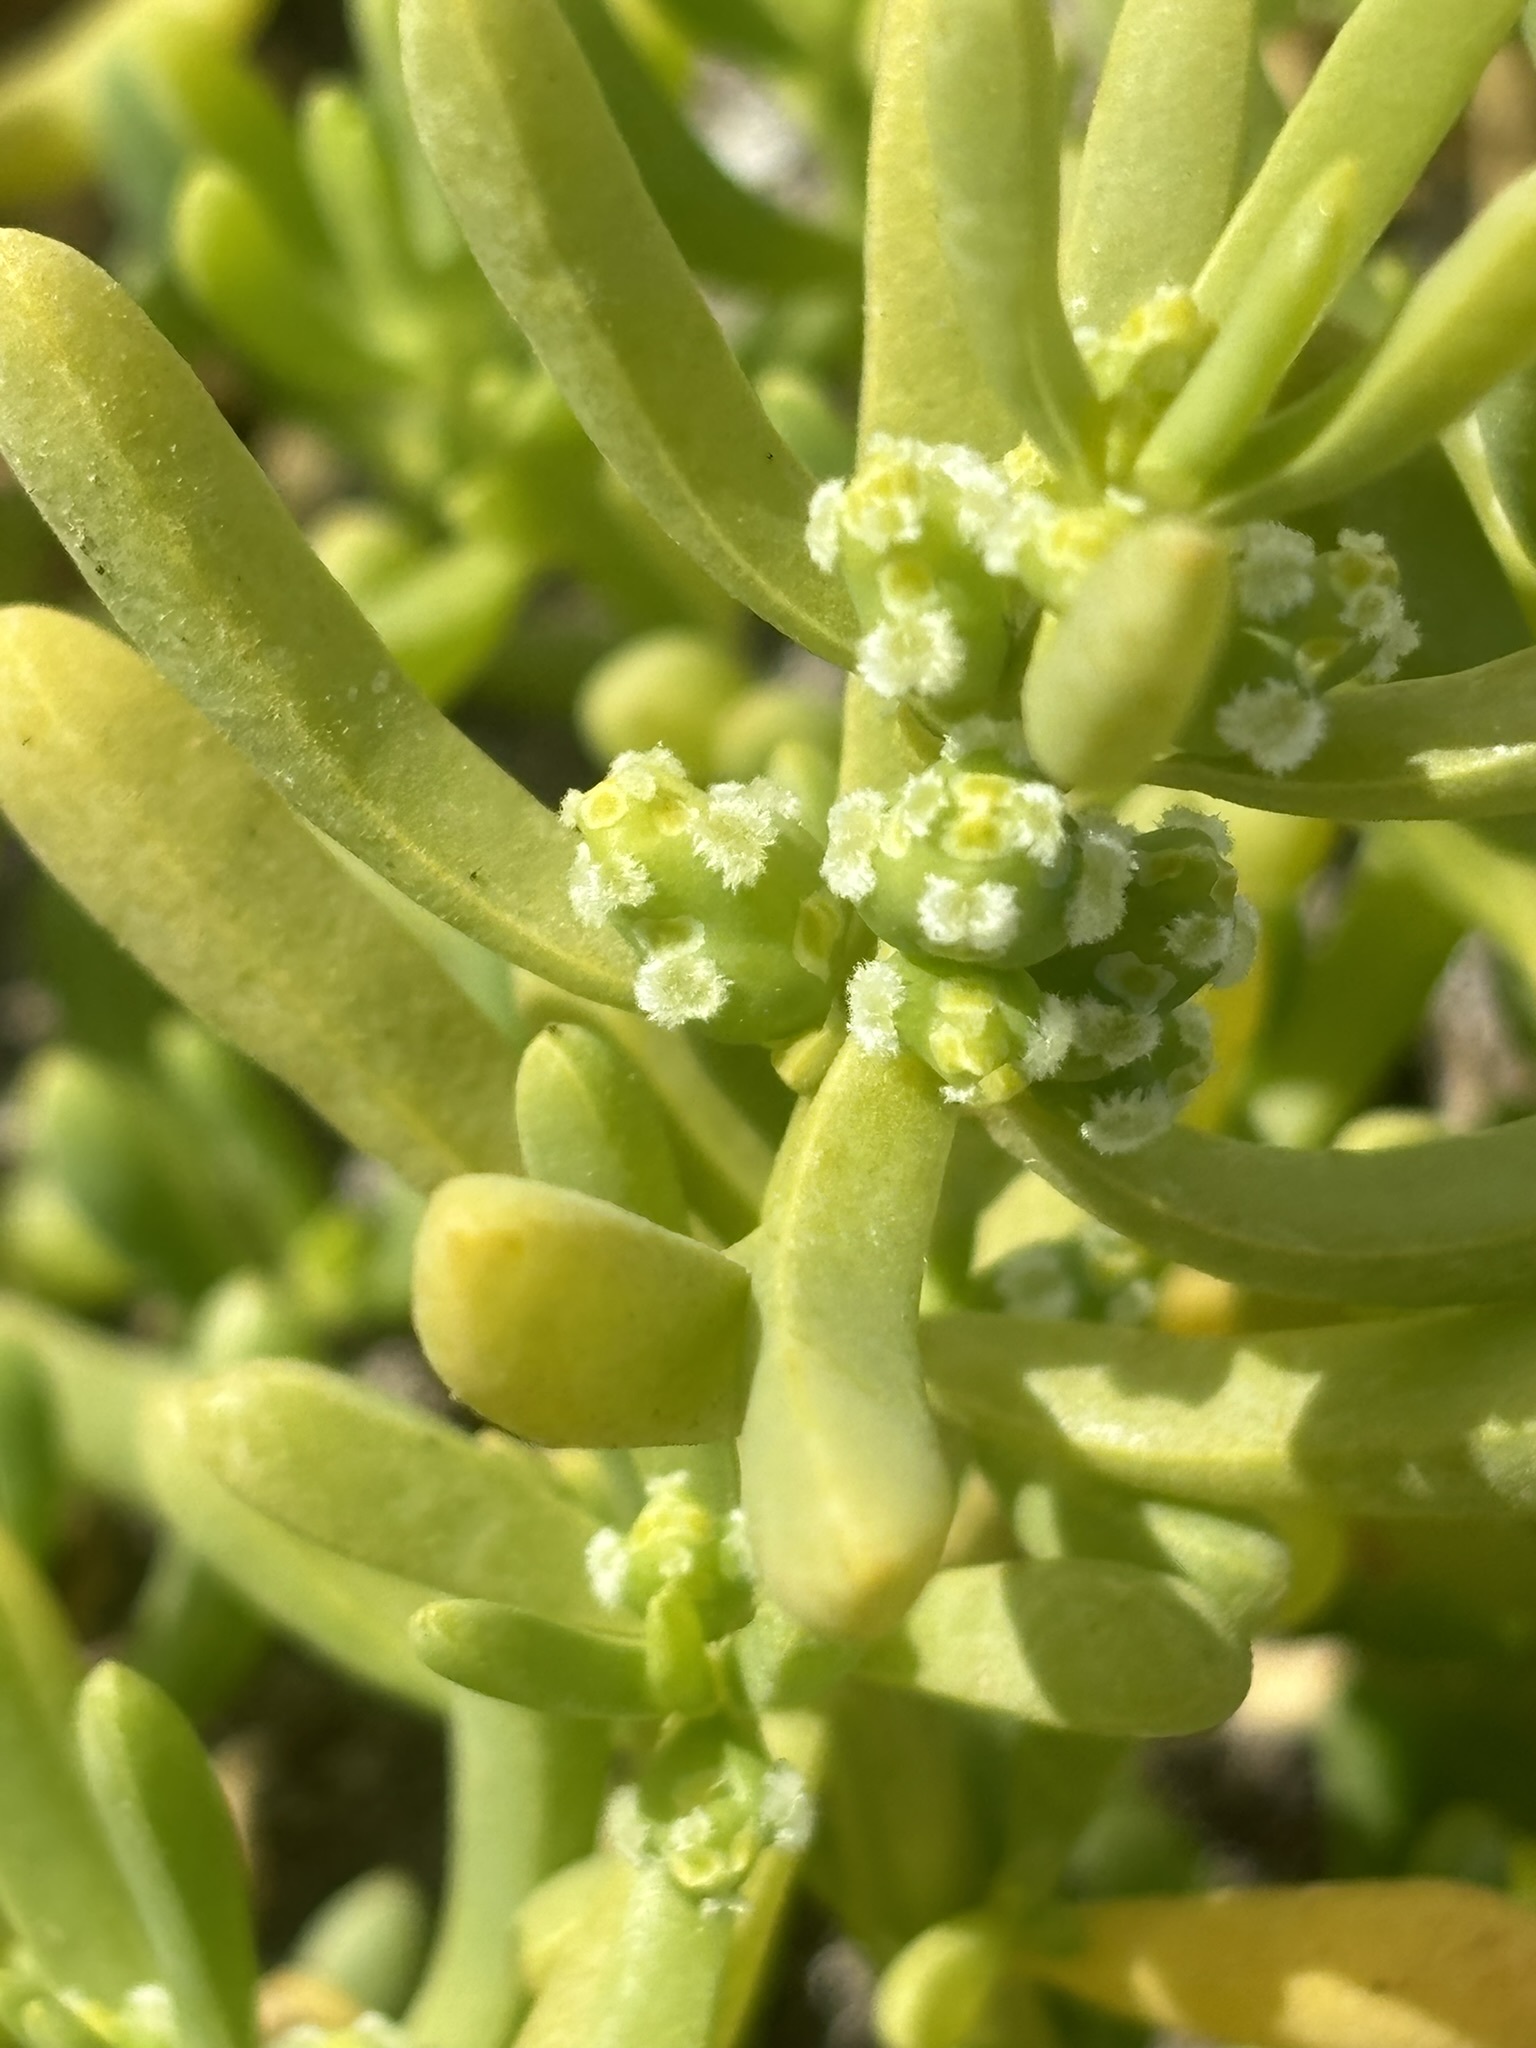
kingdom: Plantae
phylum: Tracheophyta
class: Magnoliopsida
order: Brassicales
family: Bataceae
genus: Batis
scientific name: Batis maritima
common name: Turtleweed
